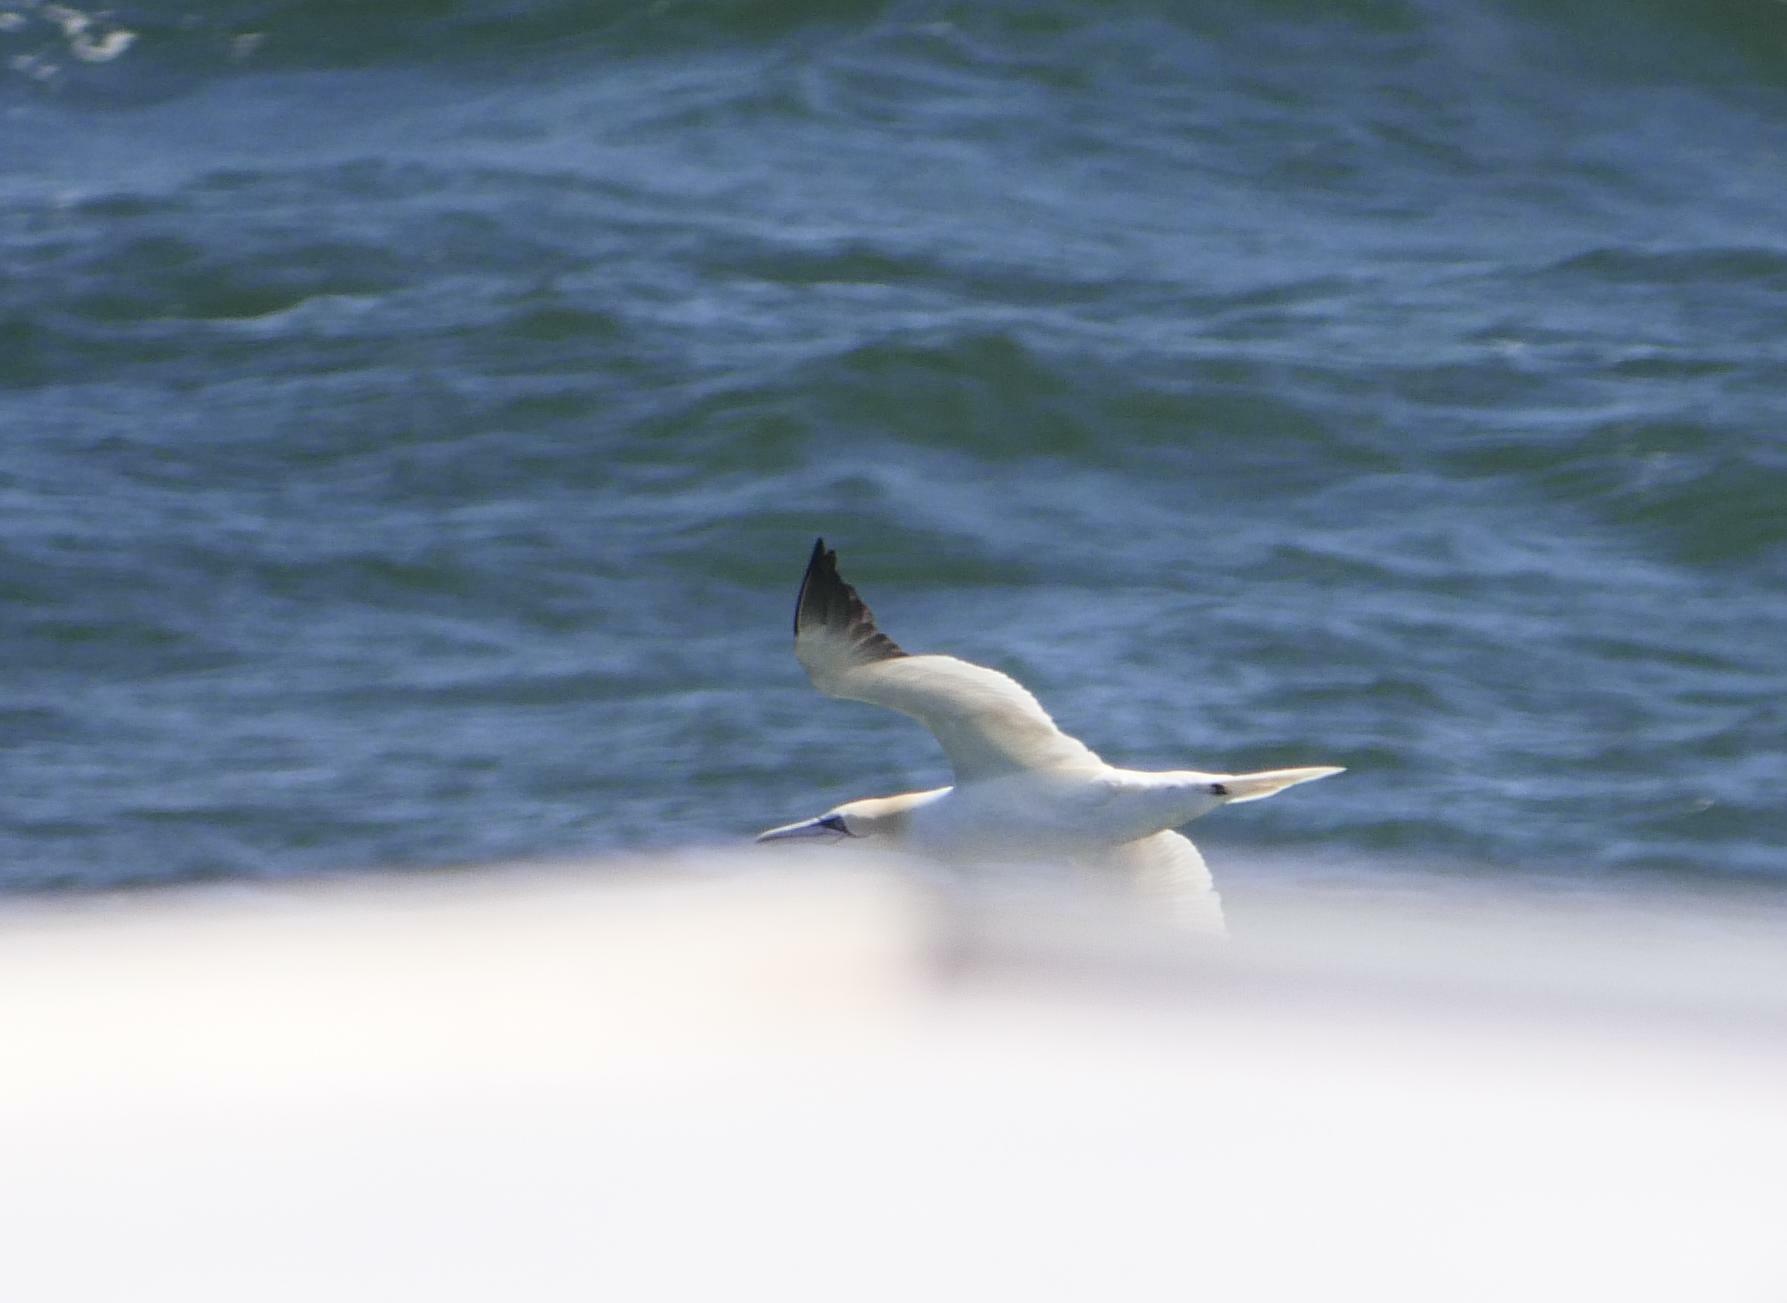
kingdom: Animalia
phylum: Chordata
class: Aves
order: Suliformes
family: Sulidae
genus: Morus
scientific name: Morus bassanus
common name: Northern gannet
